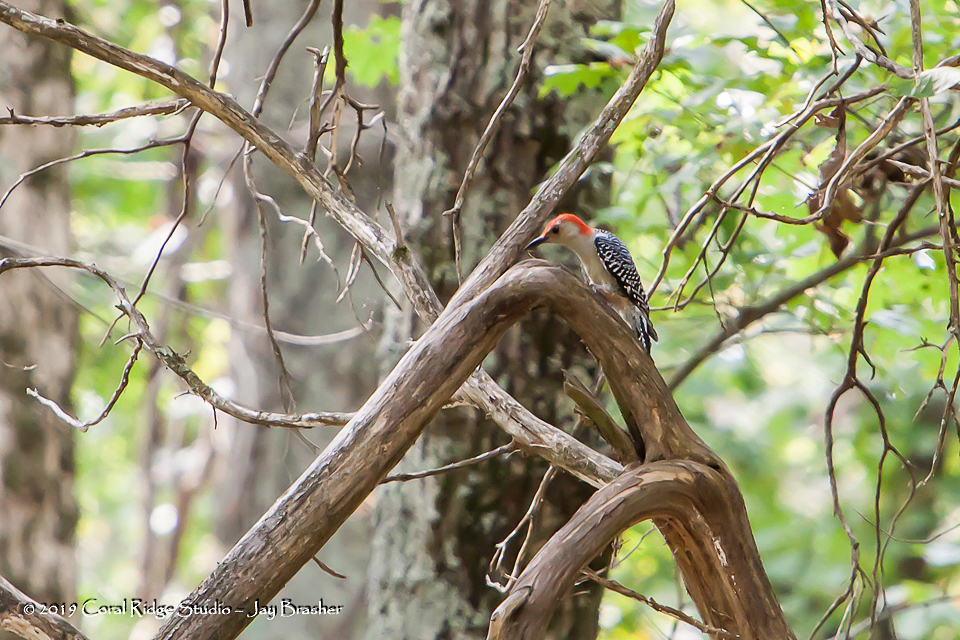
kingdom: Animalia
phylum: Chordata
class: Aves
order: Piciformes
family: Picidae
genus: Melanerpes
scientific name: Melanerpes carolinus
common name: Red-bellied woodpecker
